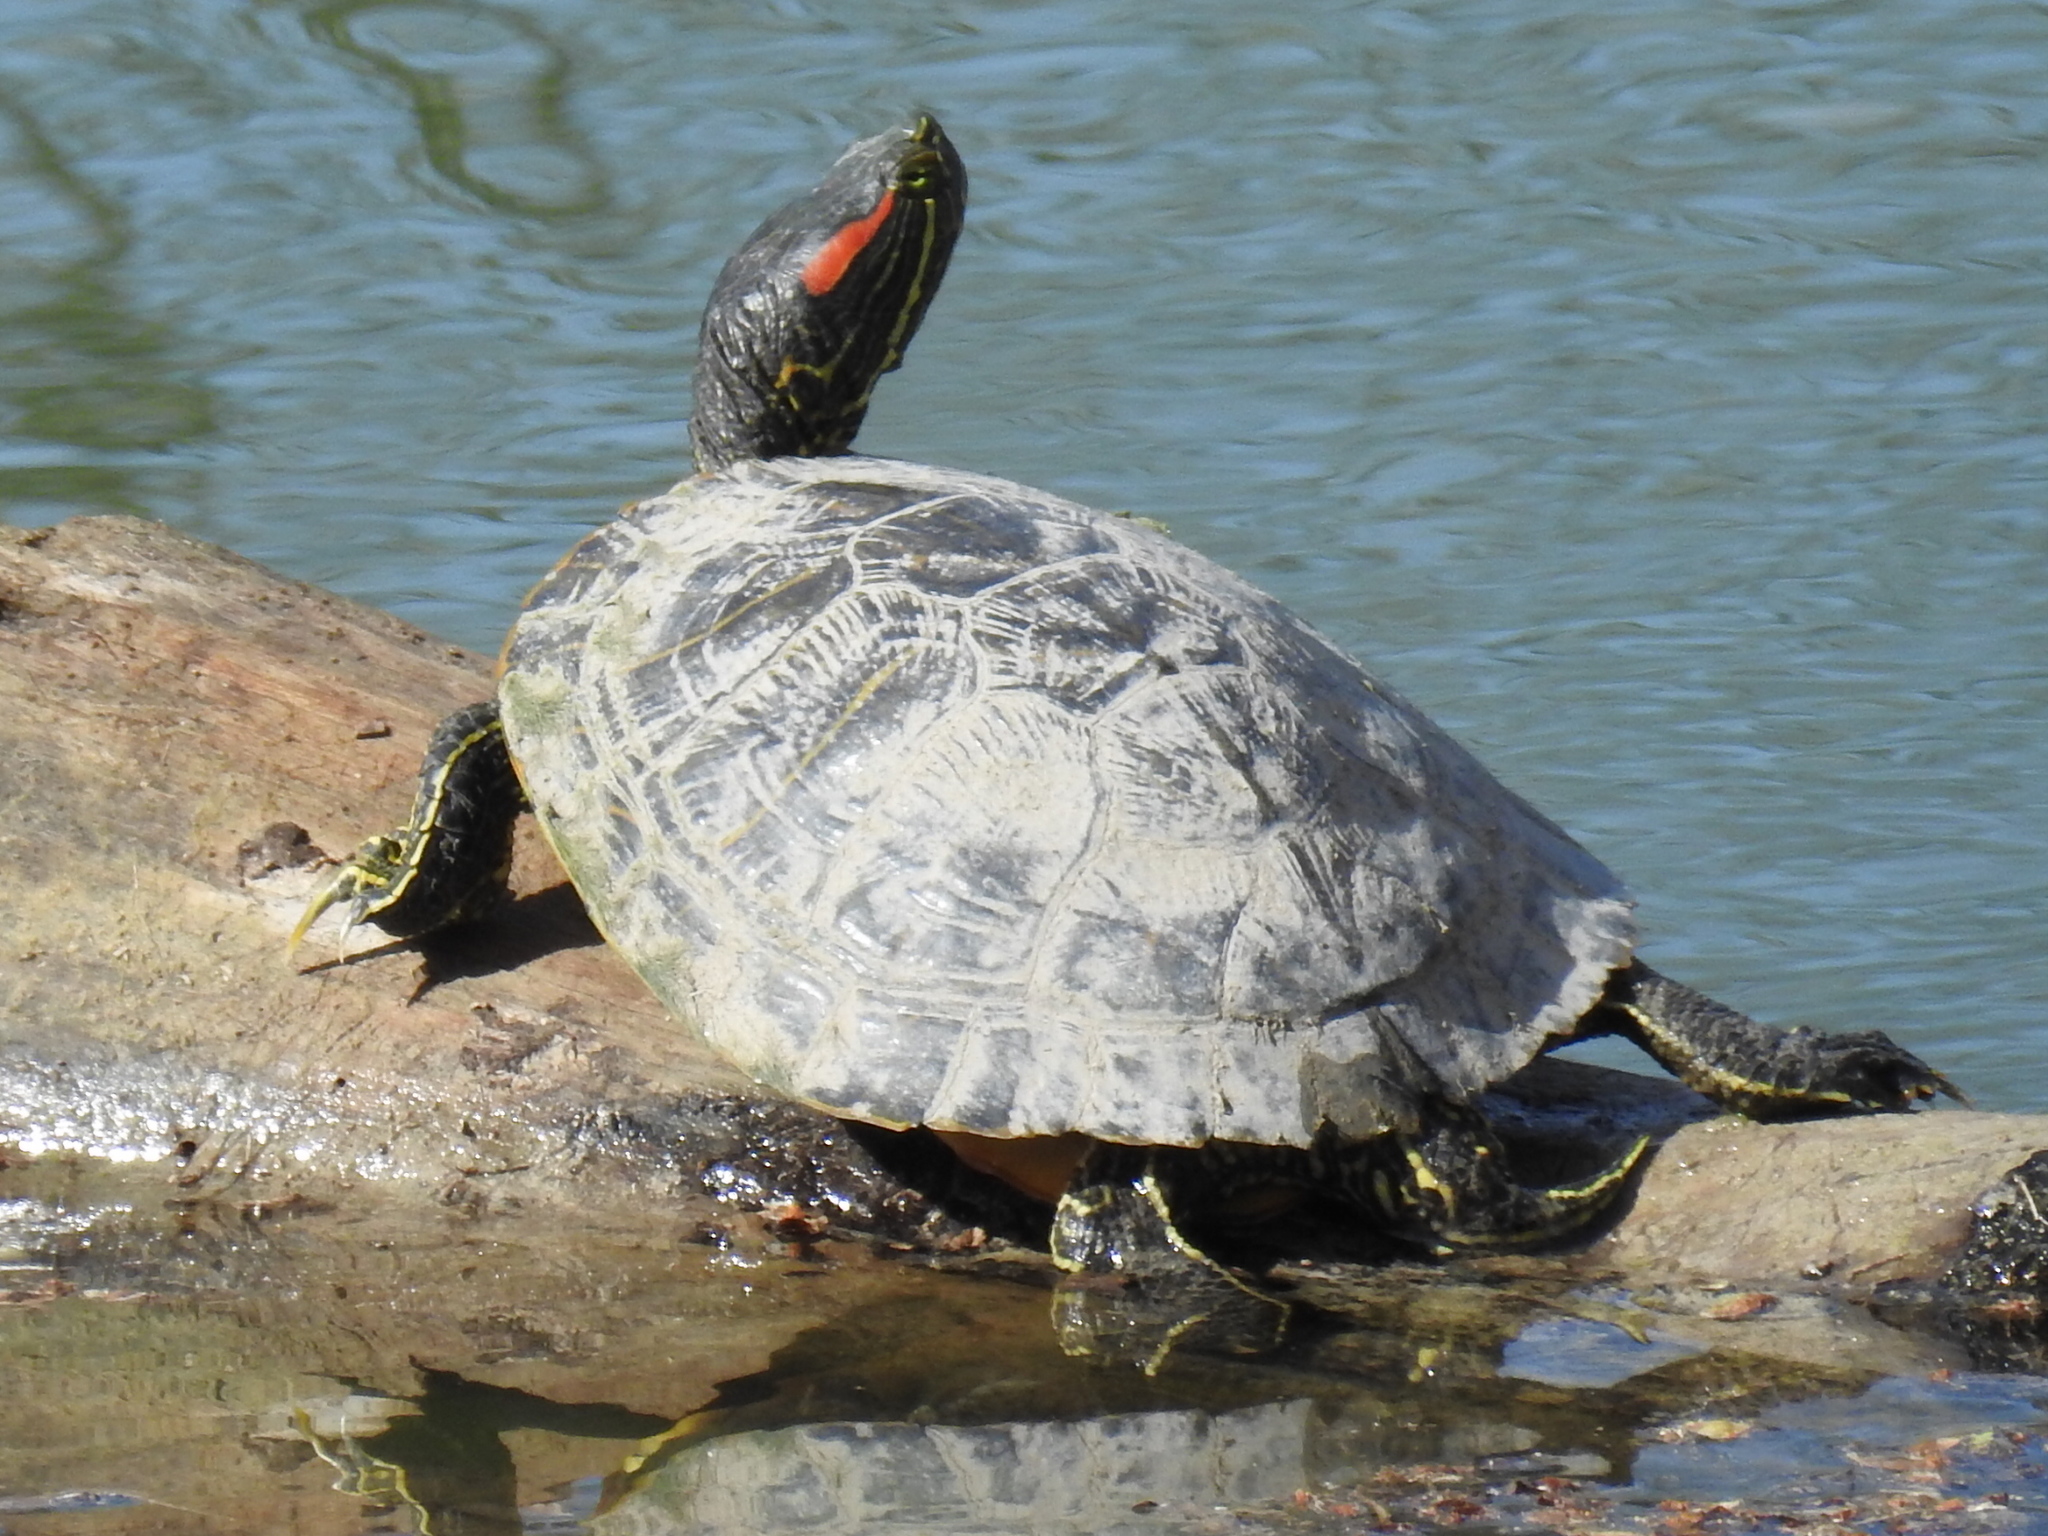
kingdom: Animalia
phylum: Chordata
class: Testudines
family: Emydidae
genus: Trachemys
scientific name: Trachemys scripta
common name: Slider
